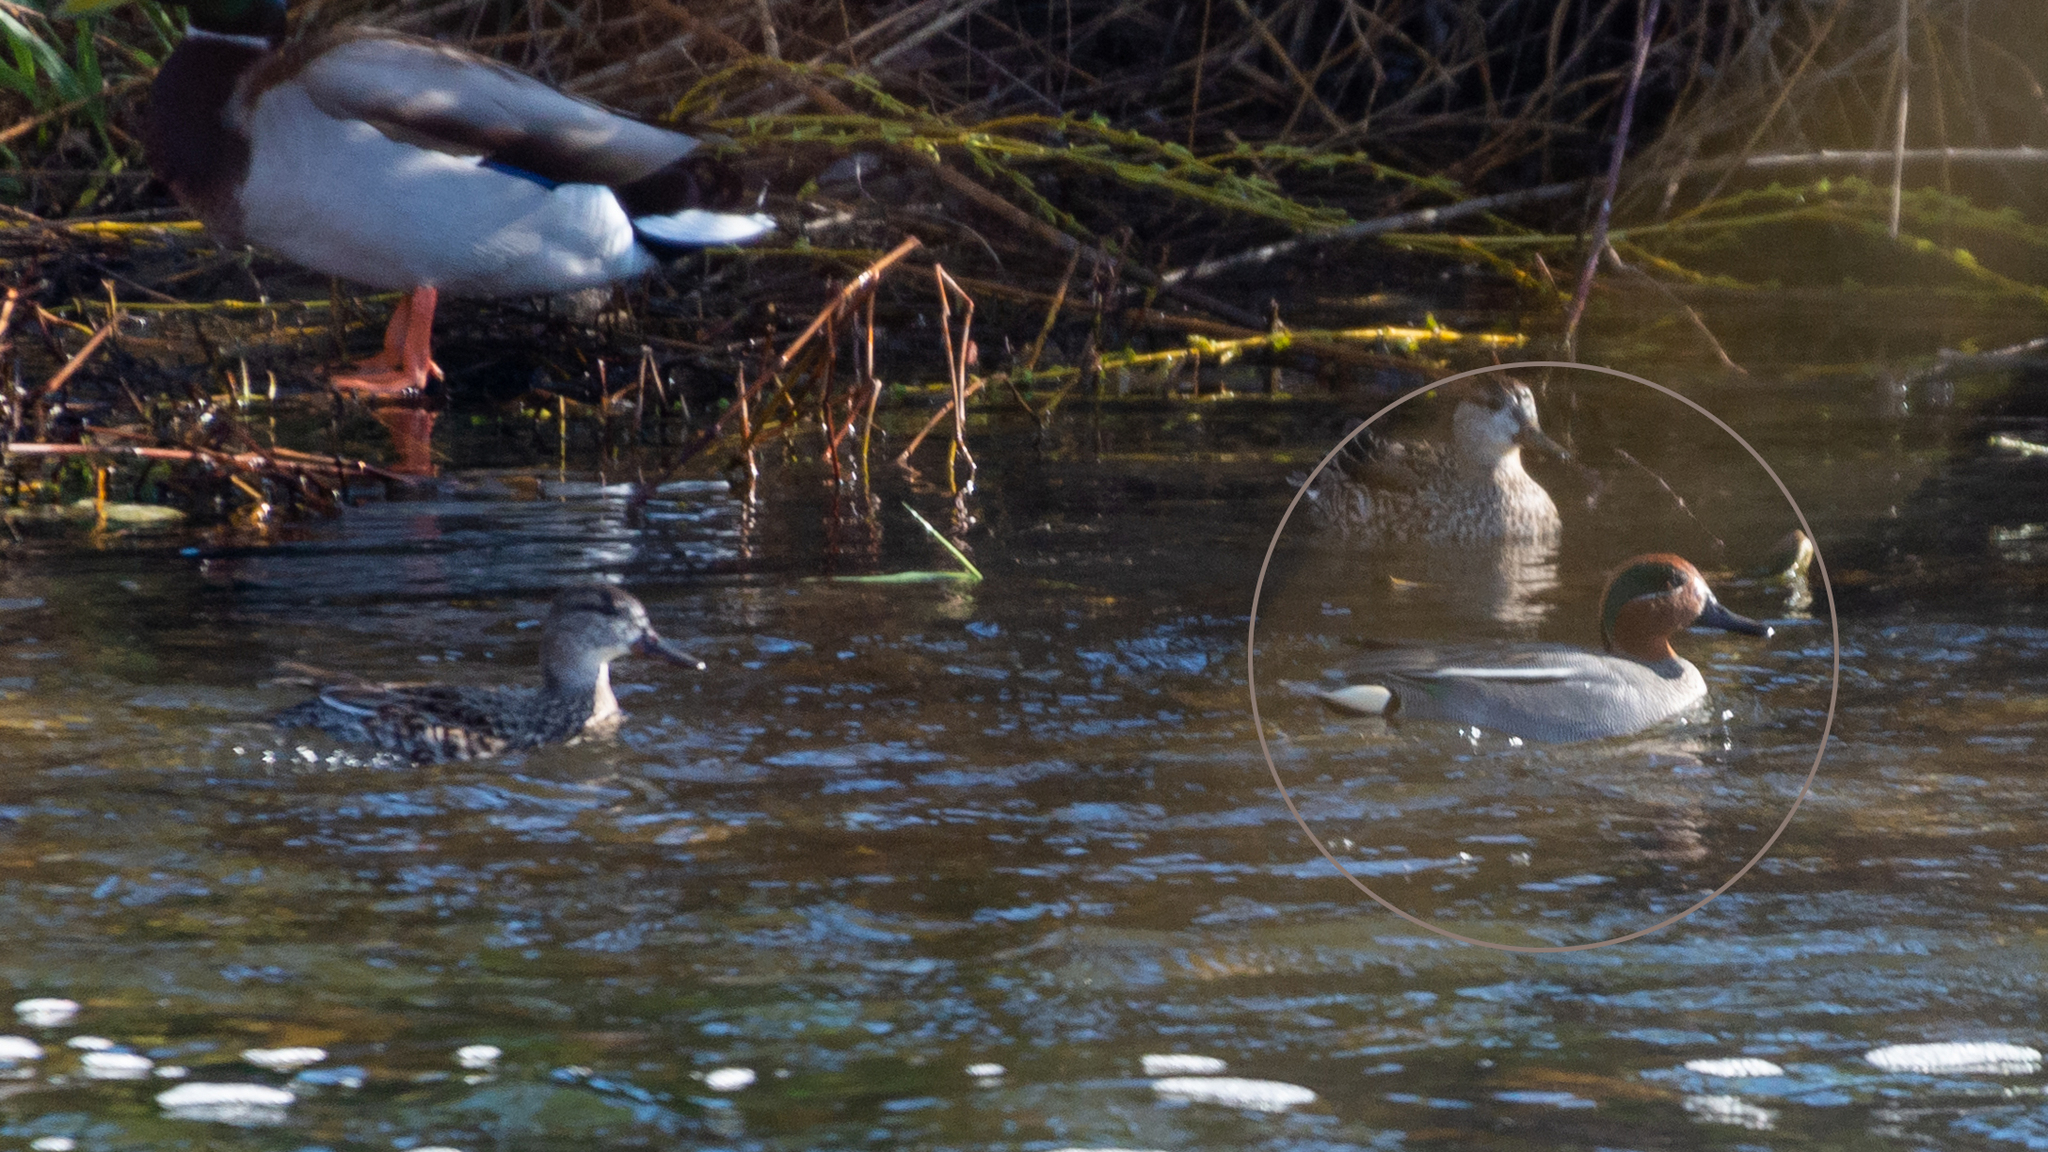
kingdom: Animalia
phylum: Chordata
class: Aves
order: Anseriformes
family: Anatidae
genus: Anas
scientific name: Anas crecca
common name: Eurasian teal
